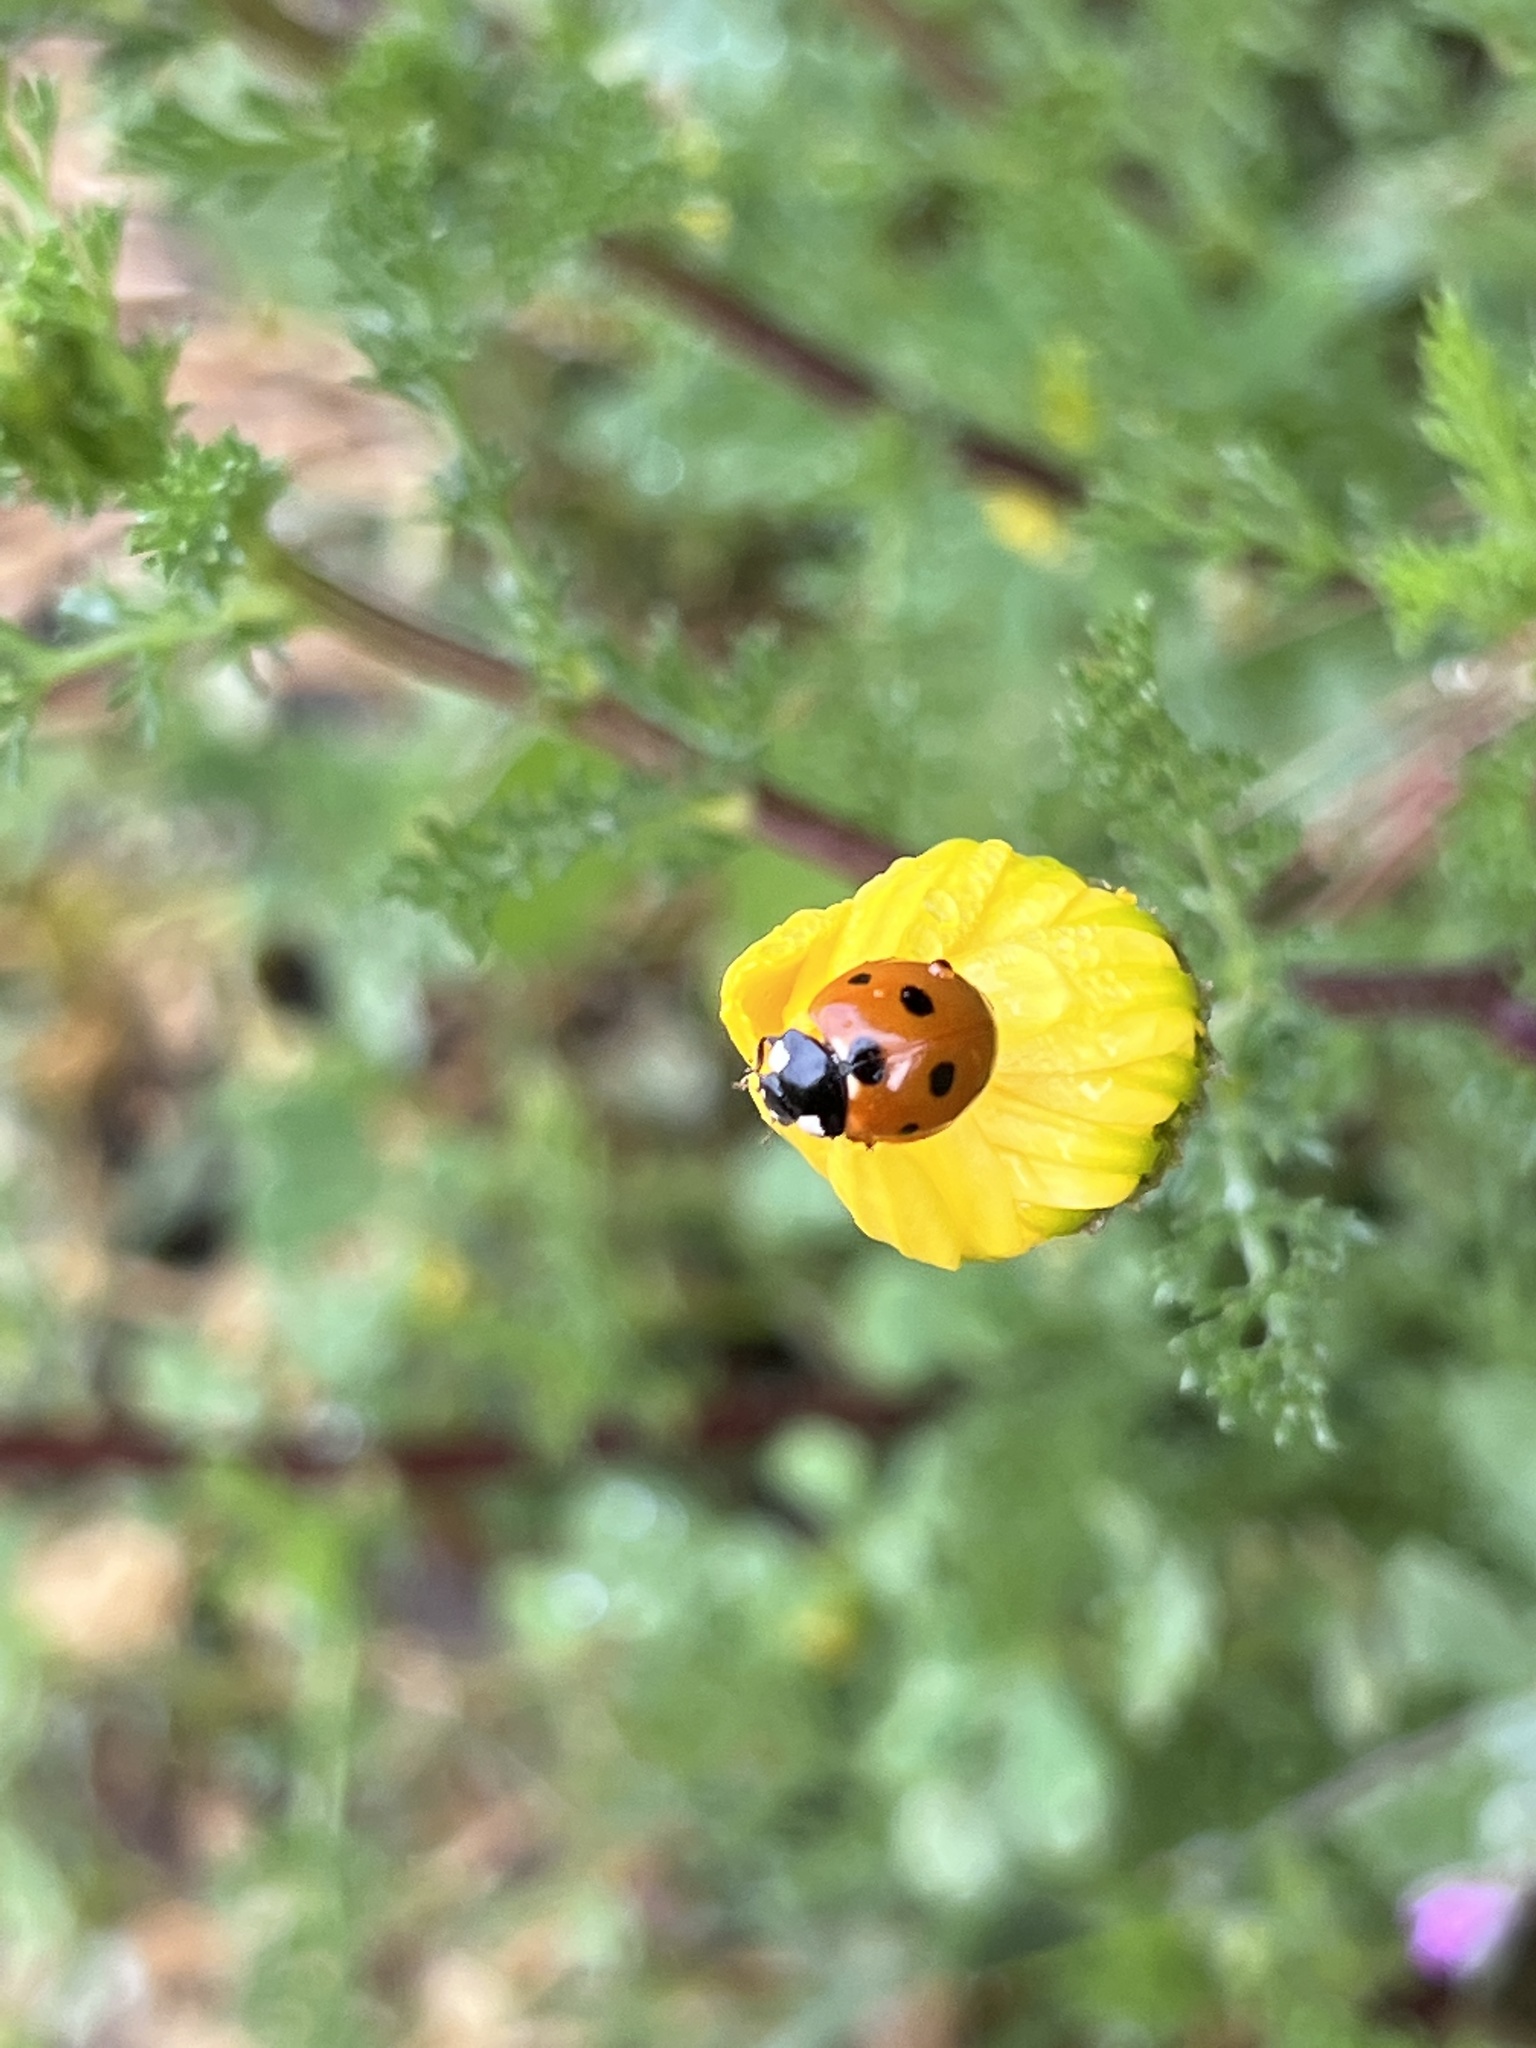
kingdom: Animalia
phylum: Arthropoda
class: Insecta
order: Coleoptera
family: Coccinellidae
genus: Coccinella
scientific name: Coccinella septempunctata
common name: Sevenspotted lady beetle
